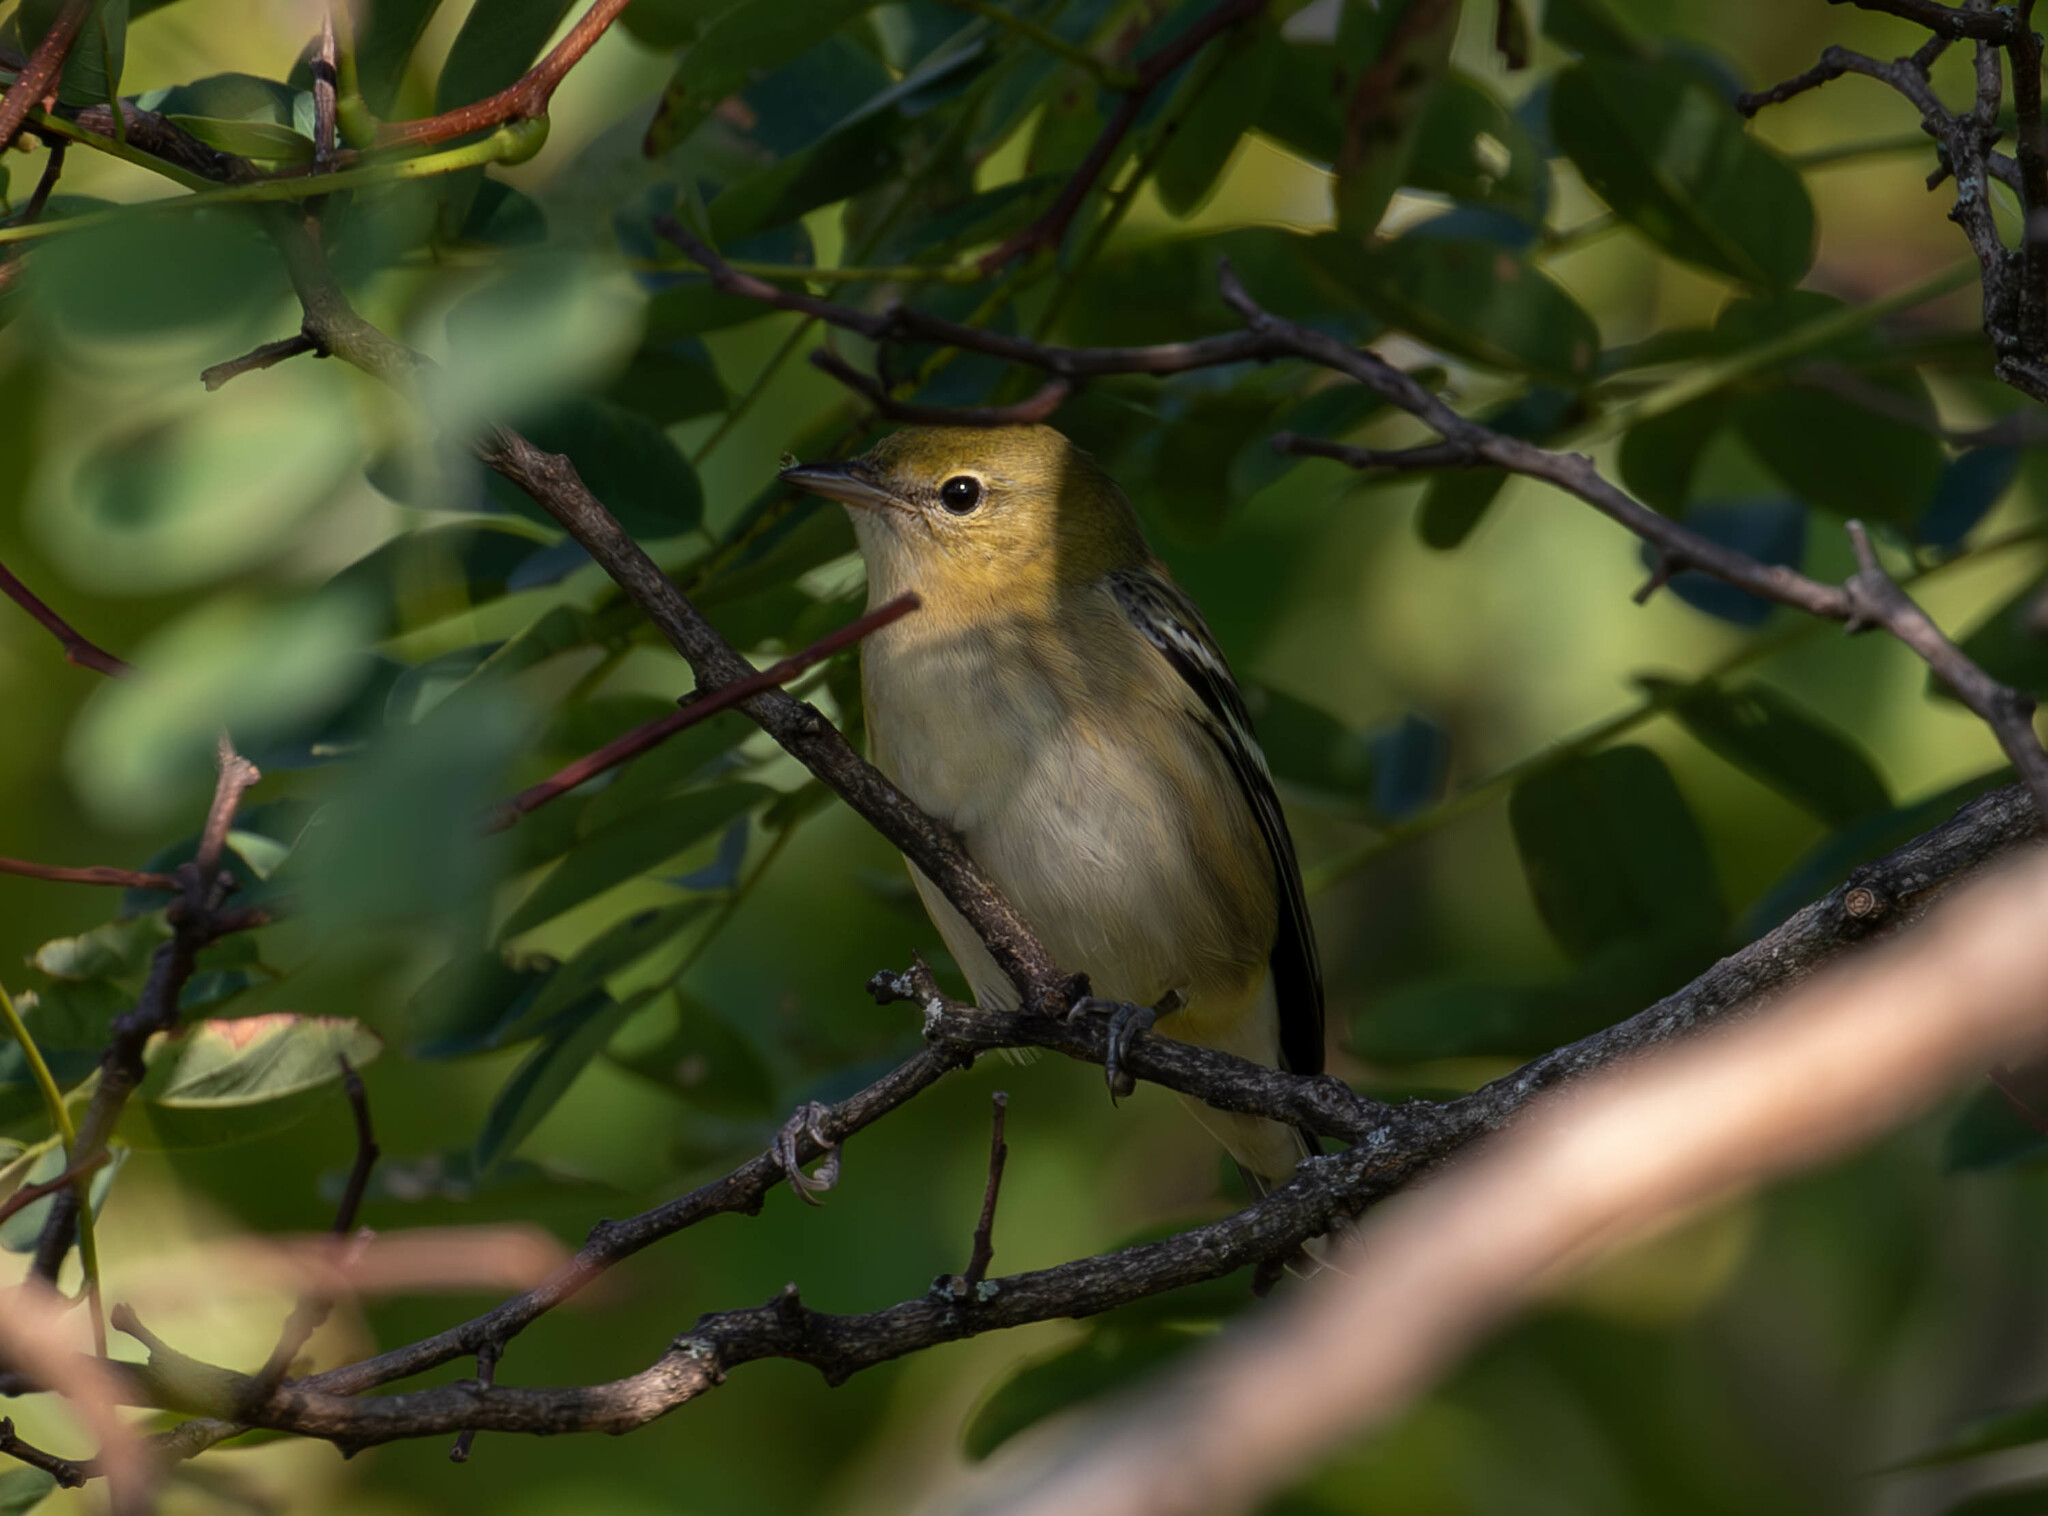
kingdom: Animalia
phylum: Chordata
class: Aves
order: Passeriformes
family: Parulidae
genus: Setophaga
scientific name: Setophaga castanea
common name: Bay-breasted warbler
